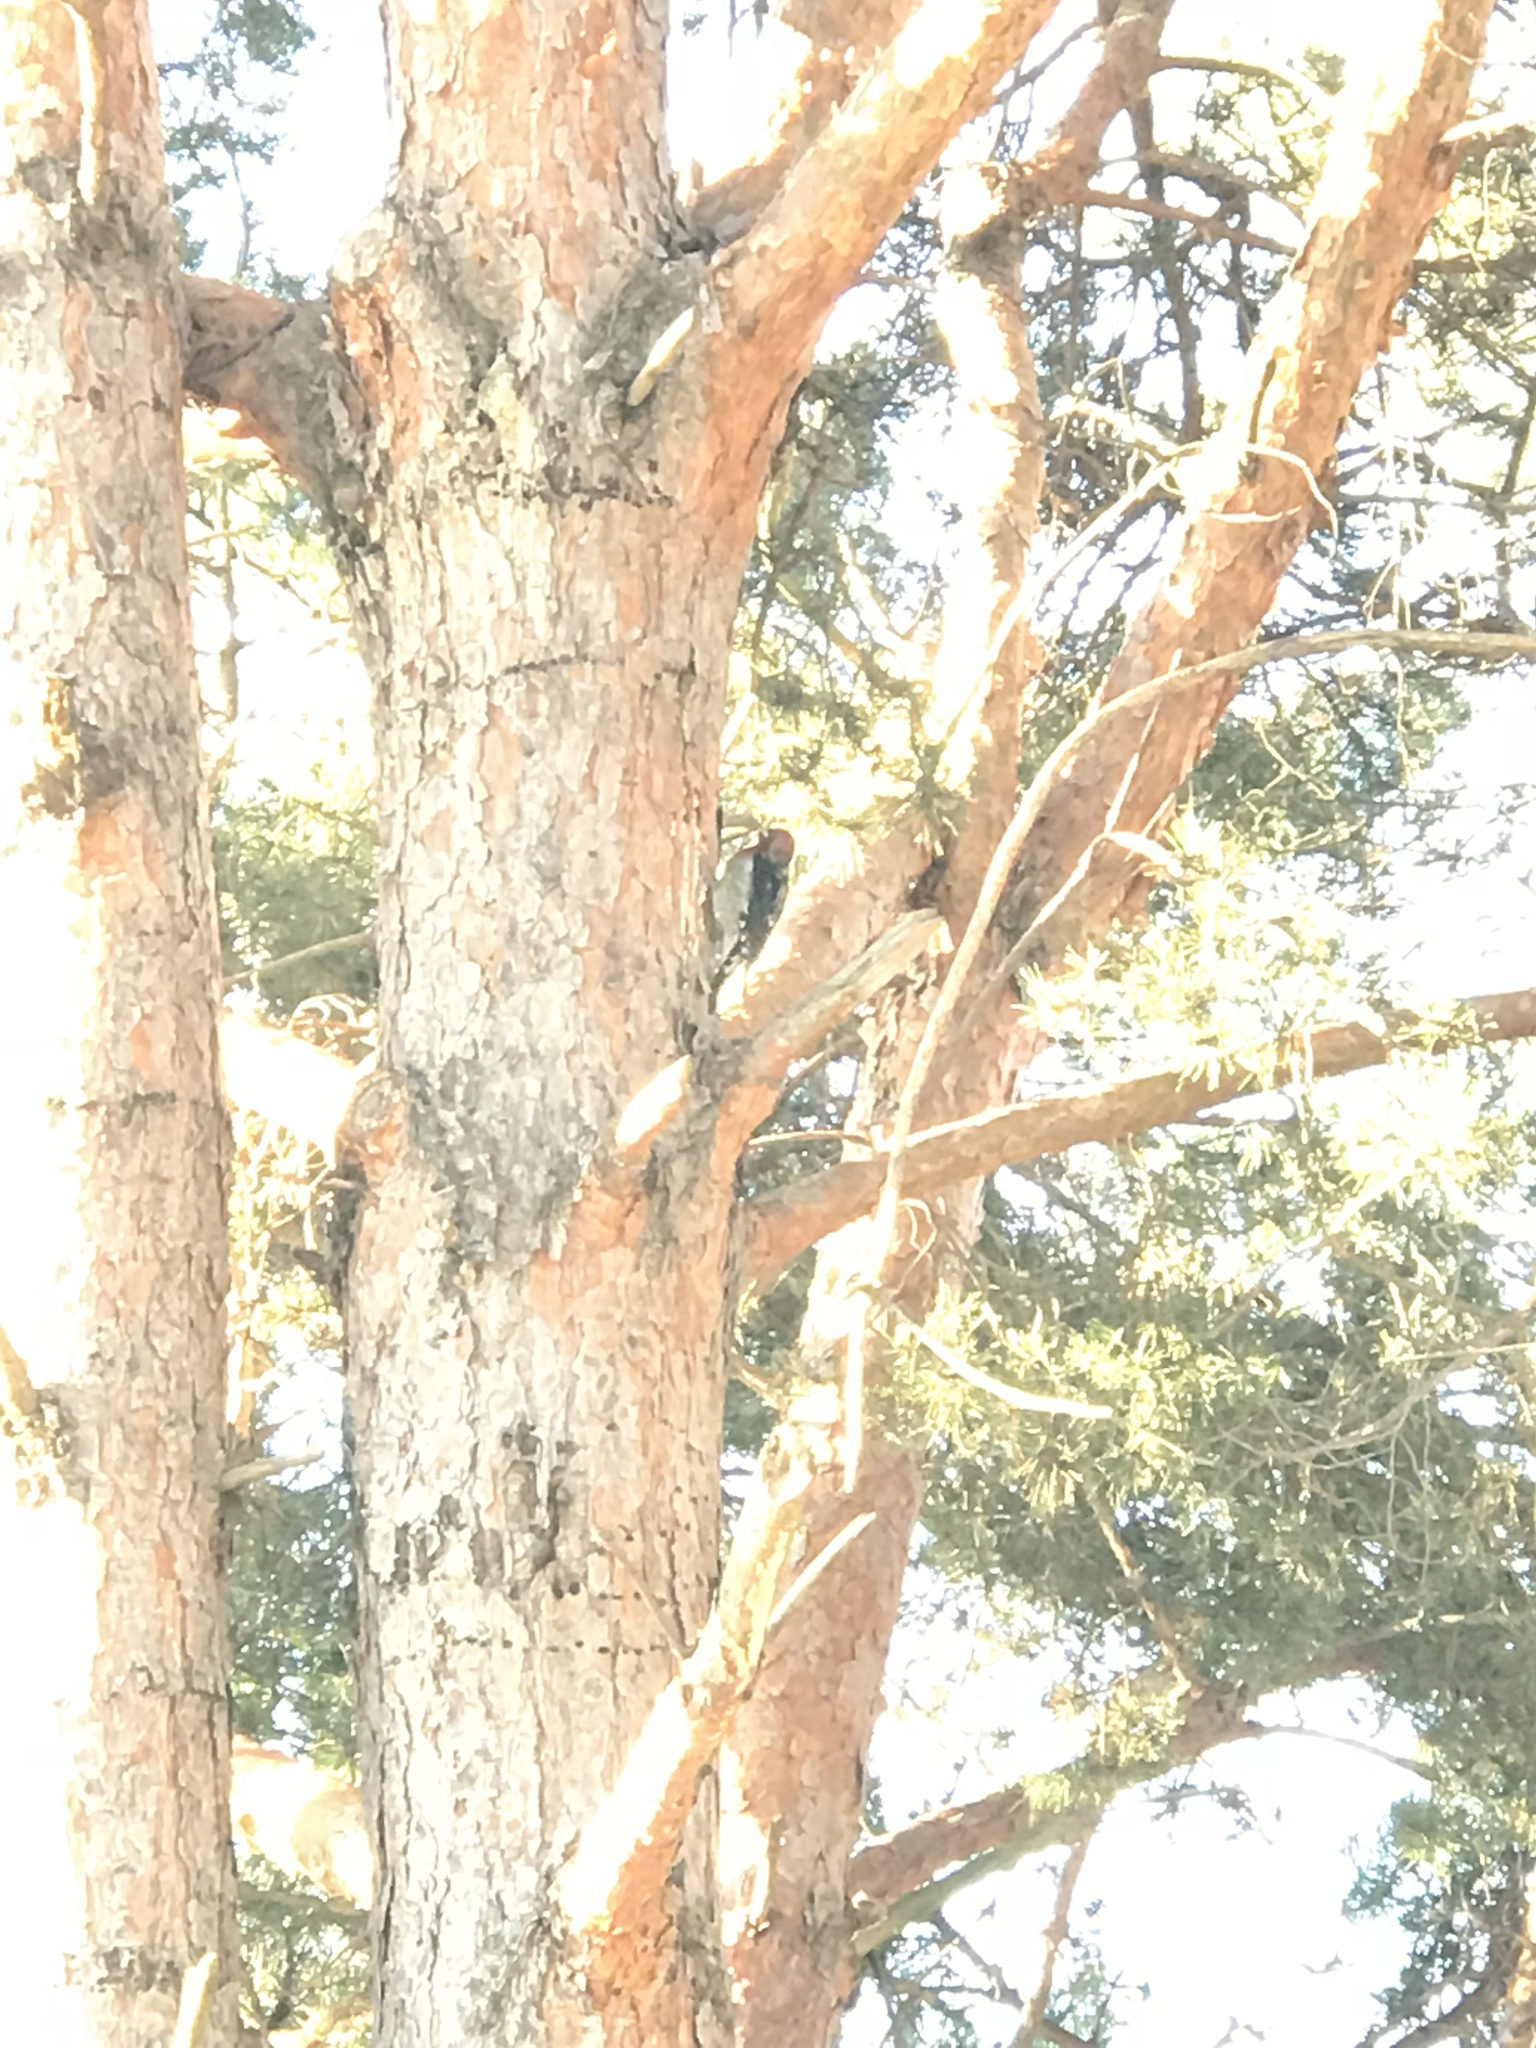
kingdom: Animalia
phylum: Chordata
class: Aves
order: Piciformes
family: Picidae
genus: Sphyrapicus
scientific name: Sphyrapicus ruber
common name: Red-breasted sapsucker
